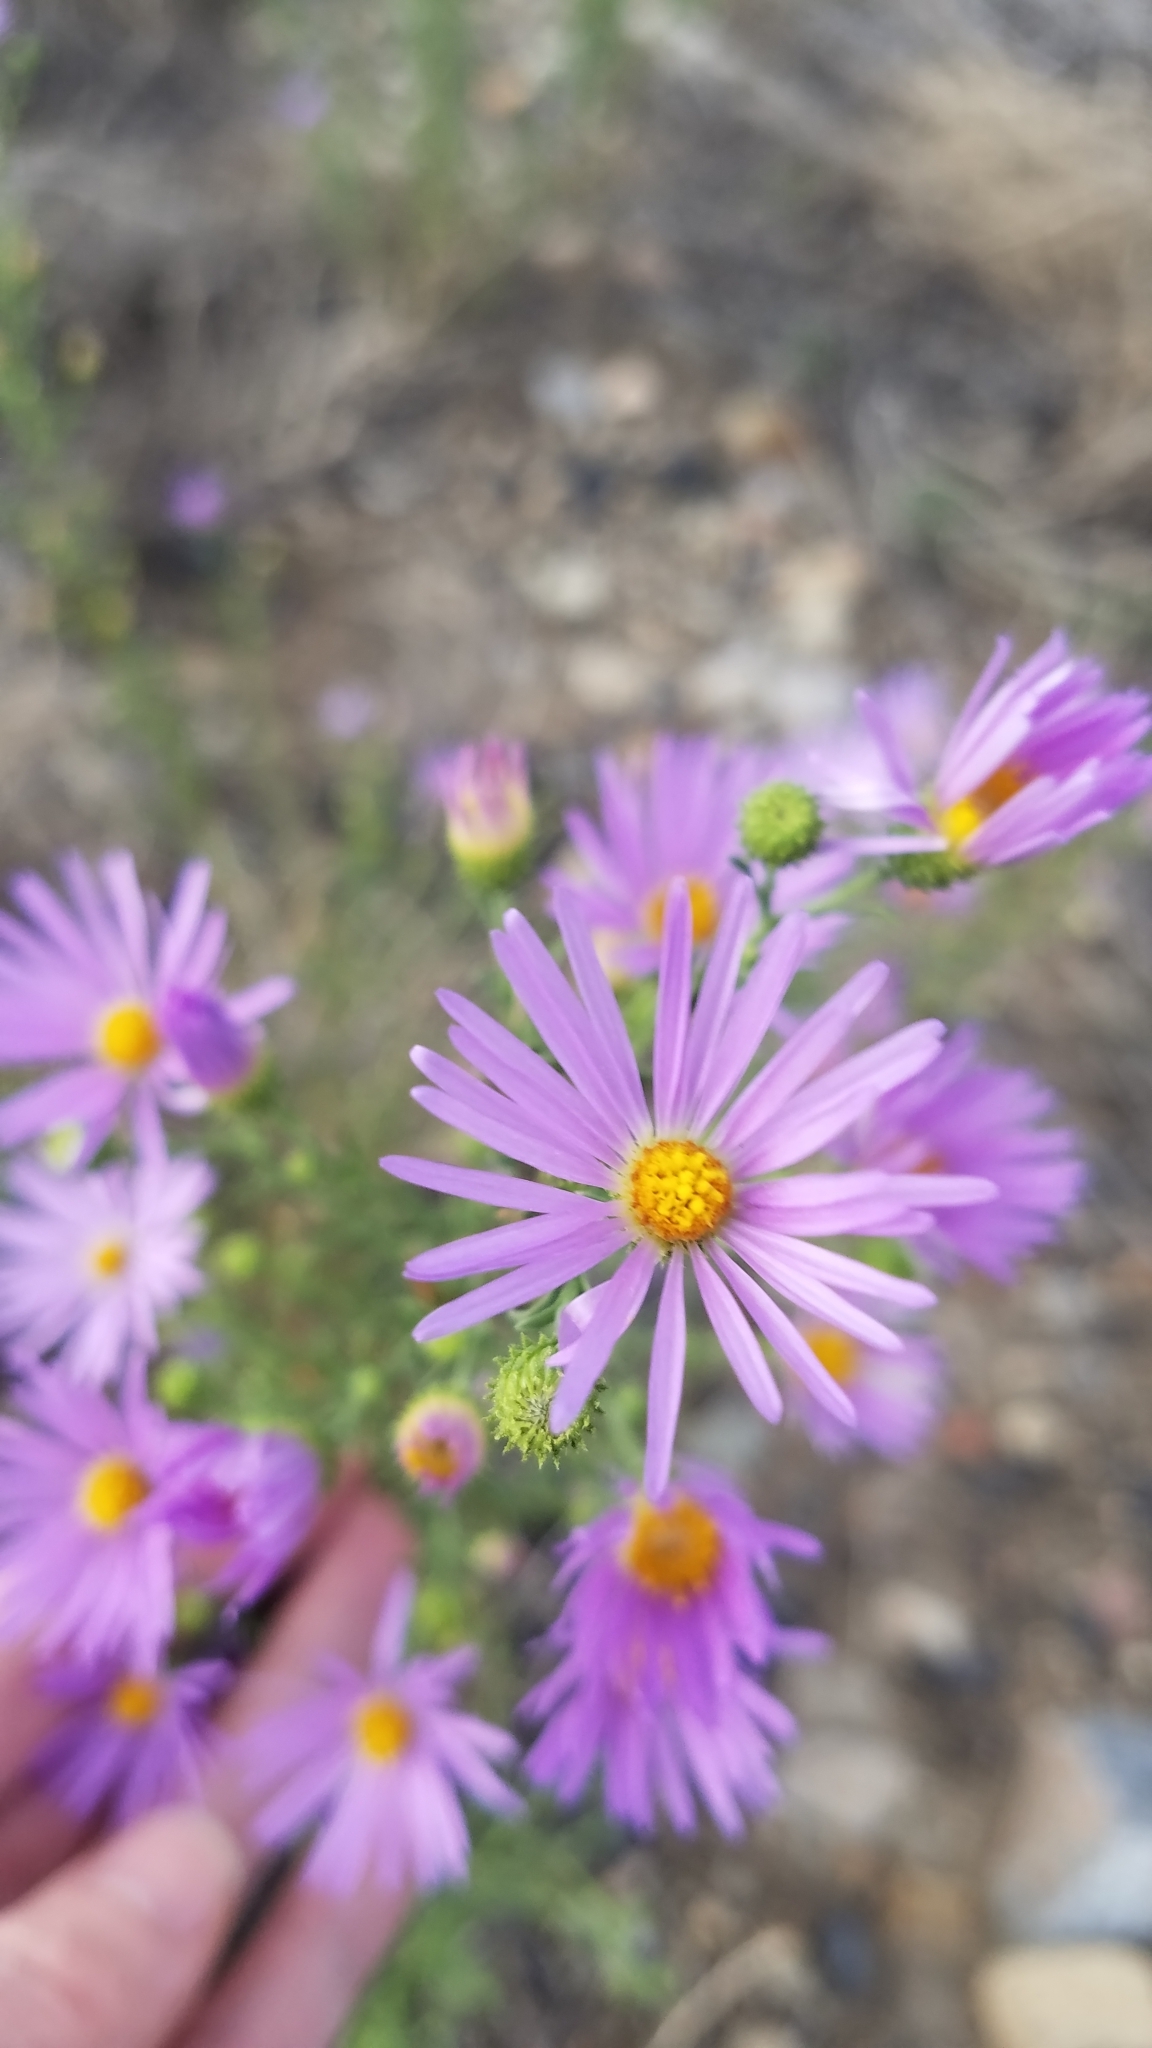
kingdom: Plantae
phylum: Tracheophyta
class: Magnoliopsida
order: Asterales
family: Asteraceae
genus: Dieteria
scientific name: Dieteria
